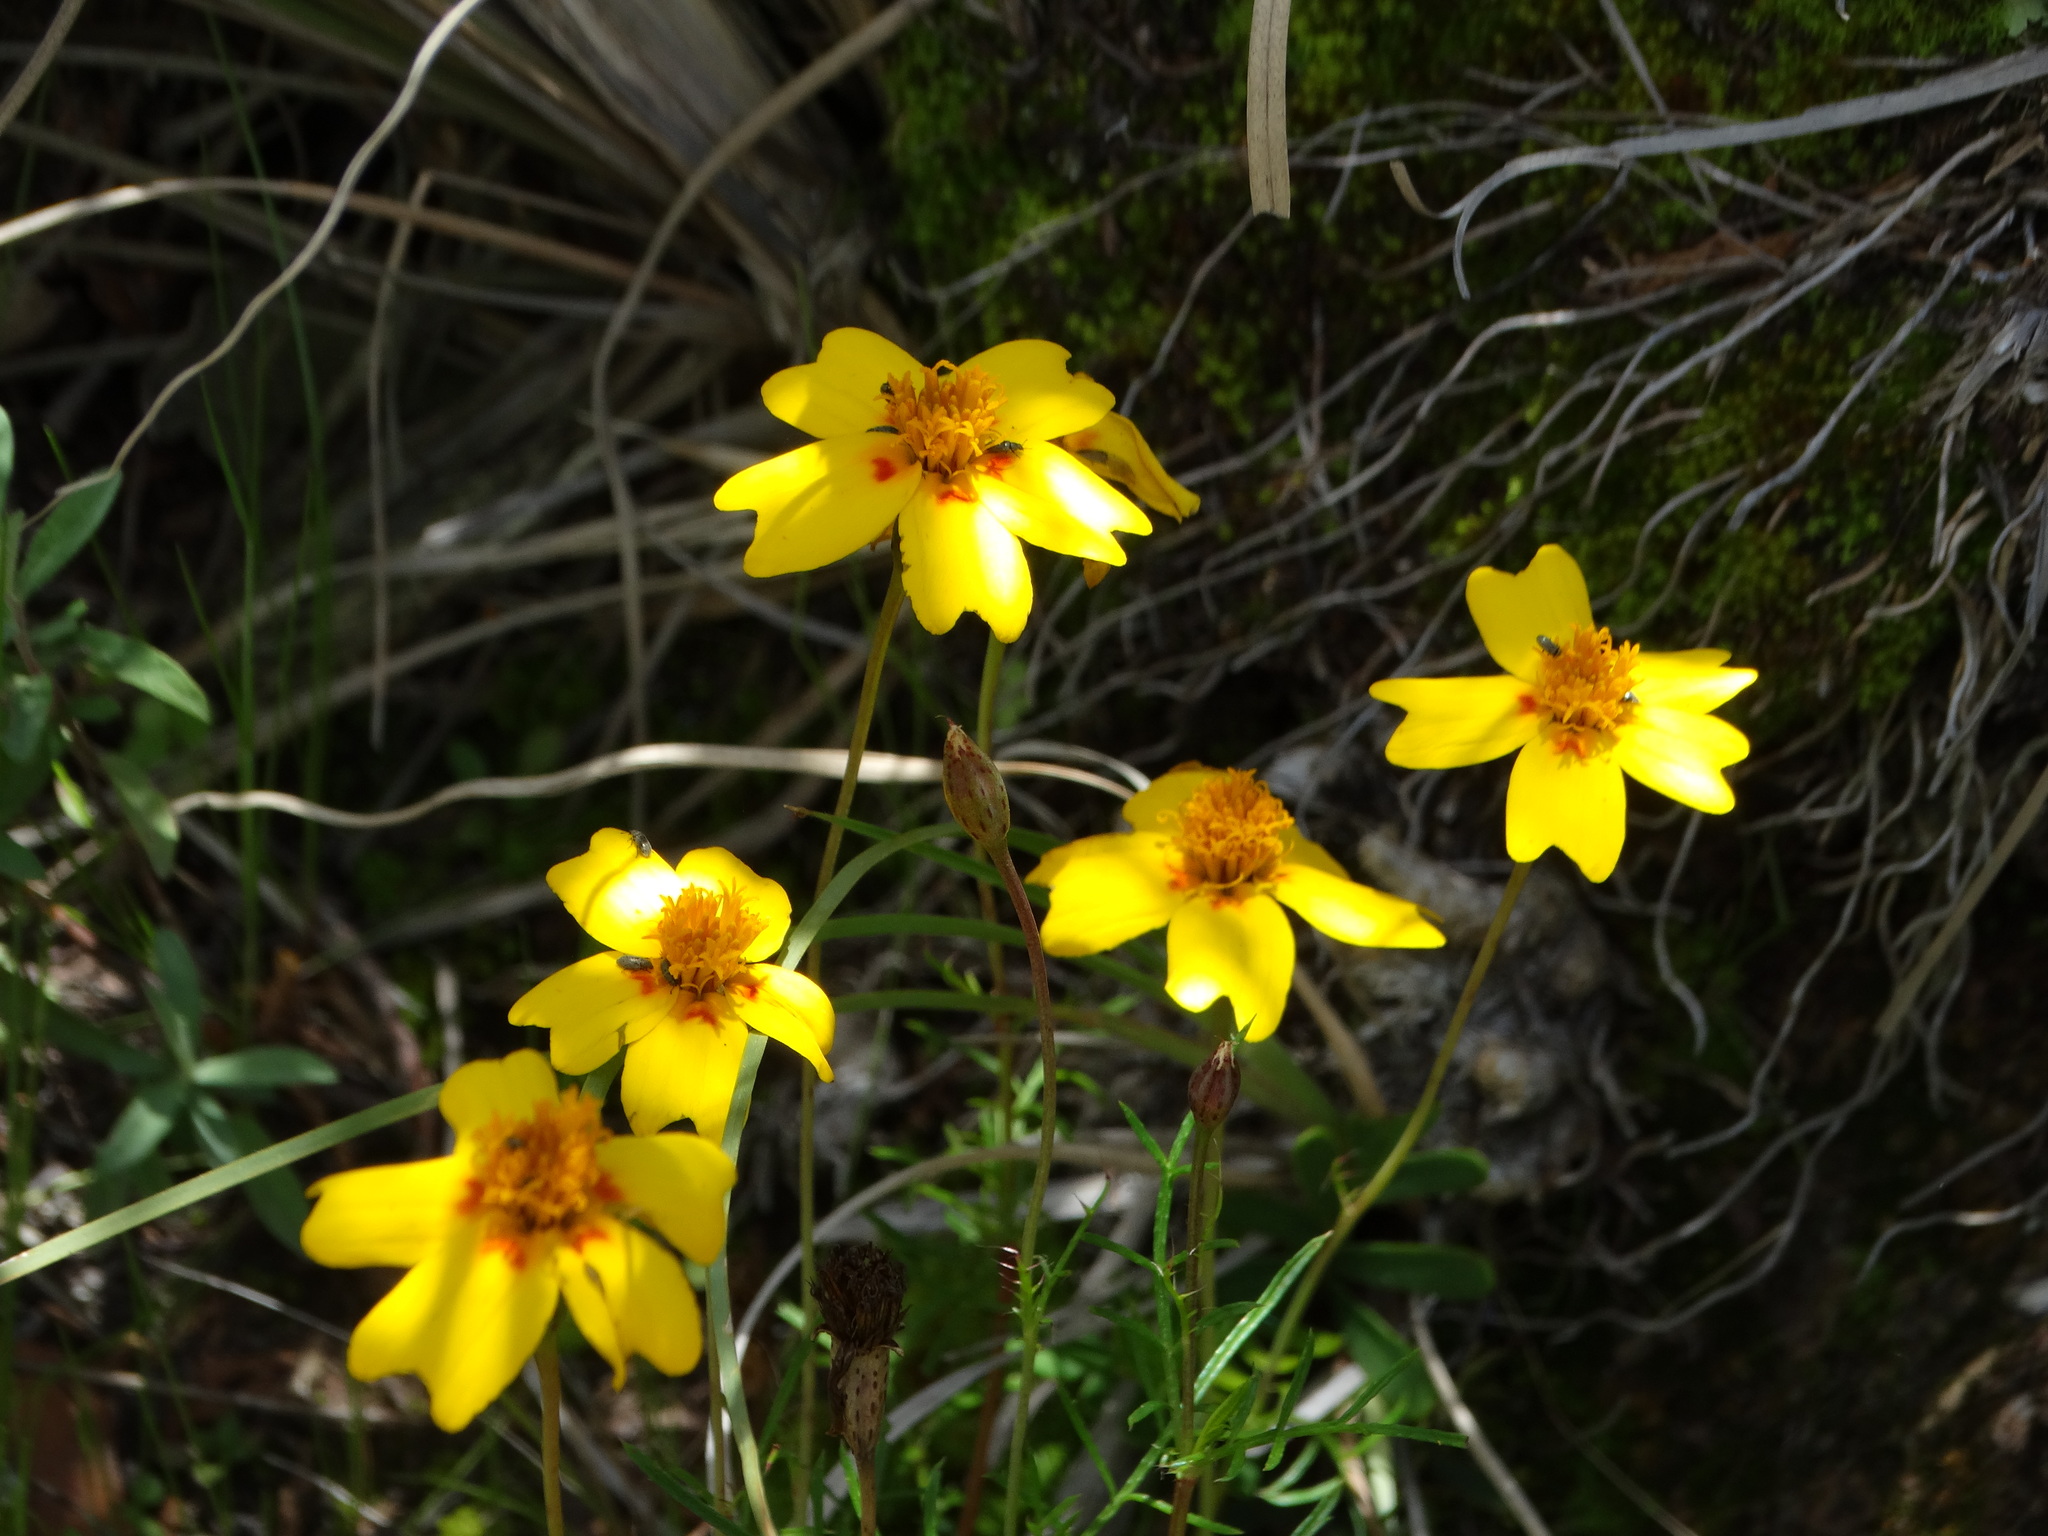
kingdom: Plantae
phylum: Tracheophyta
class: Magnoliopsida
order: Asterales
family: Asteraceae
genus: Tagetes
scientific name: Tagetes lunulata
